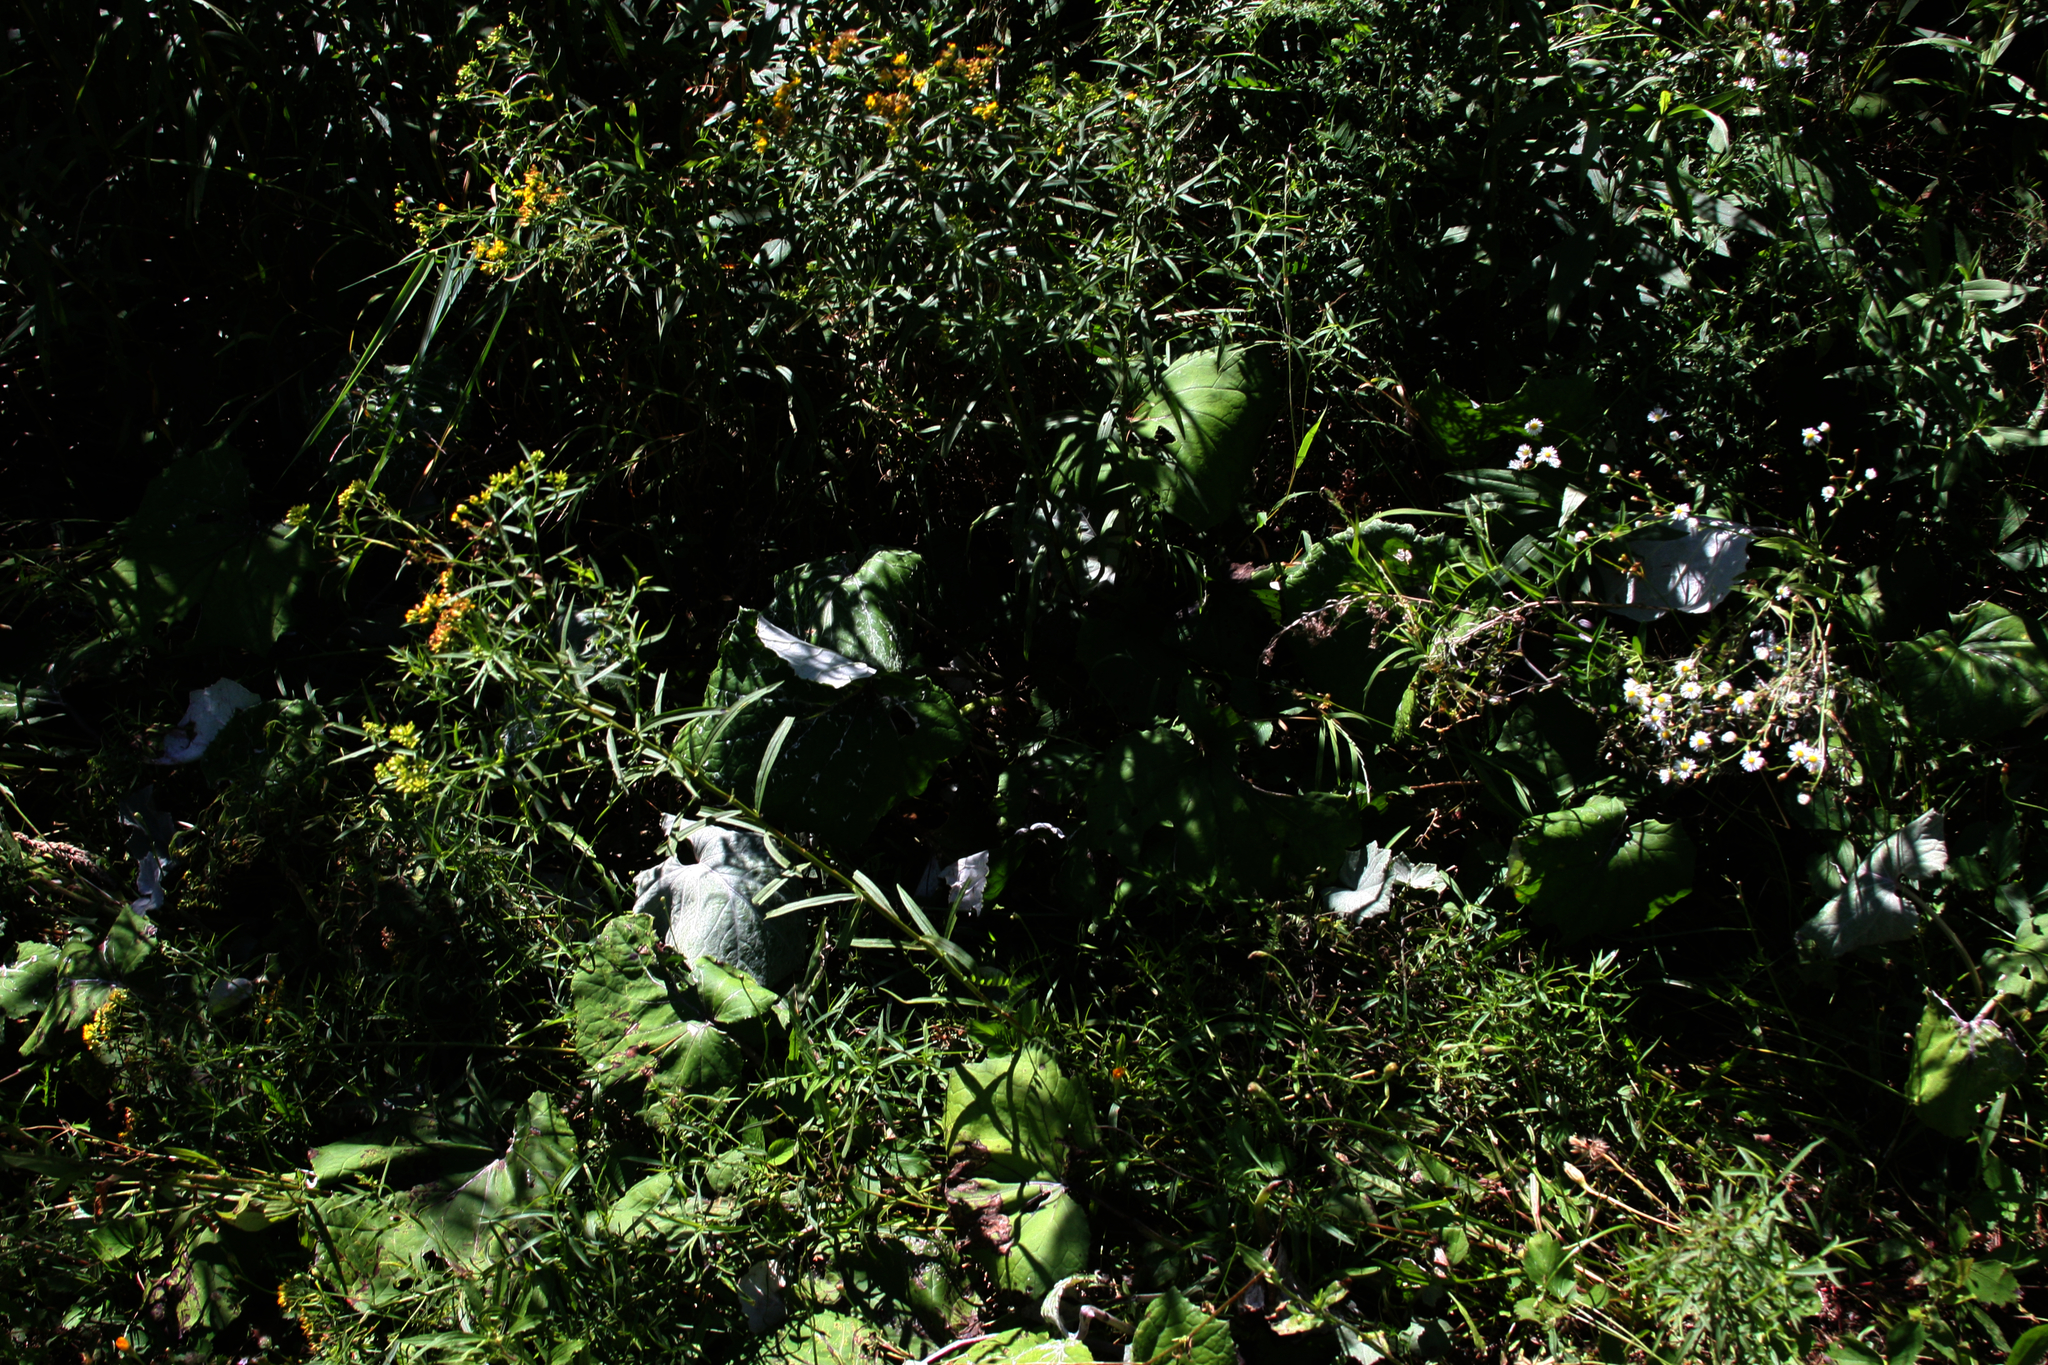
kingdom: Plantae
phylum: Tracheophyta
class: Magnoliopsida
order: Asterales
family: Asteraceae
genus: Tussilago
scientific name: Tussilago farfara
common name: Coltsfoot
